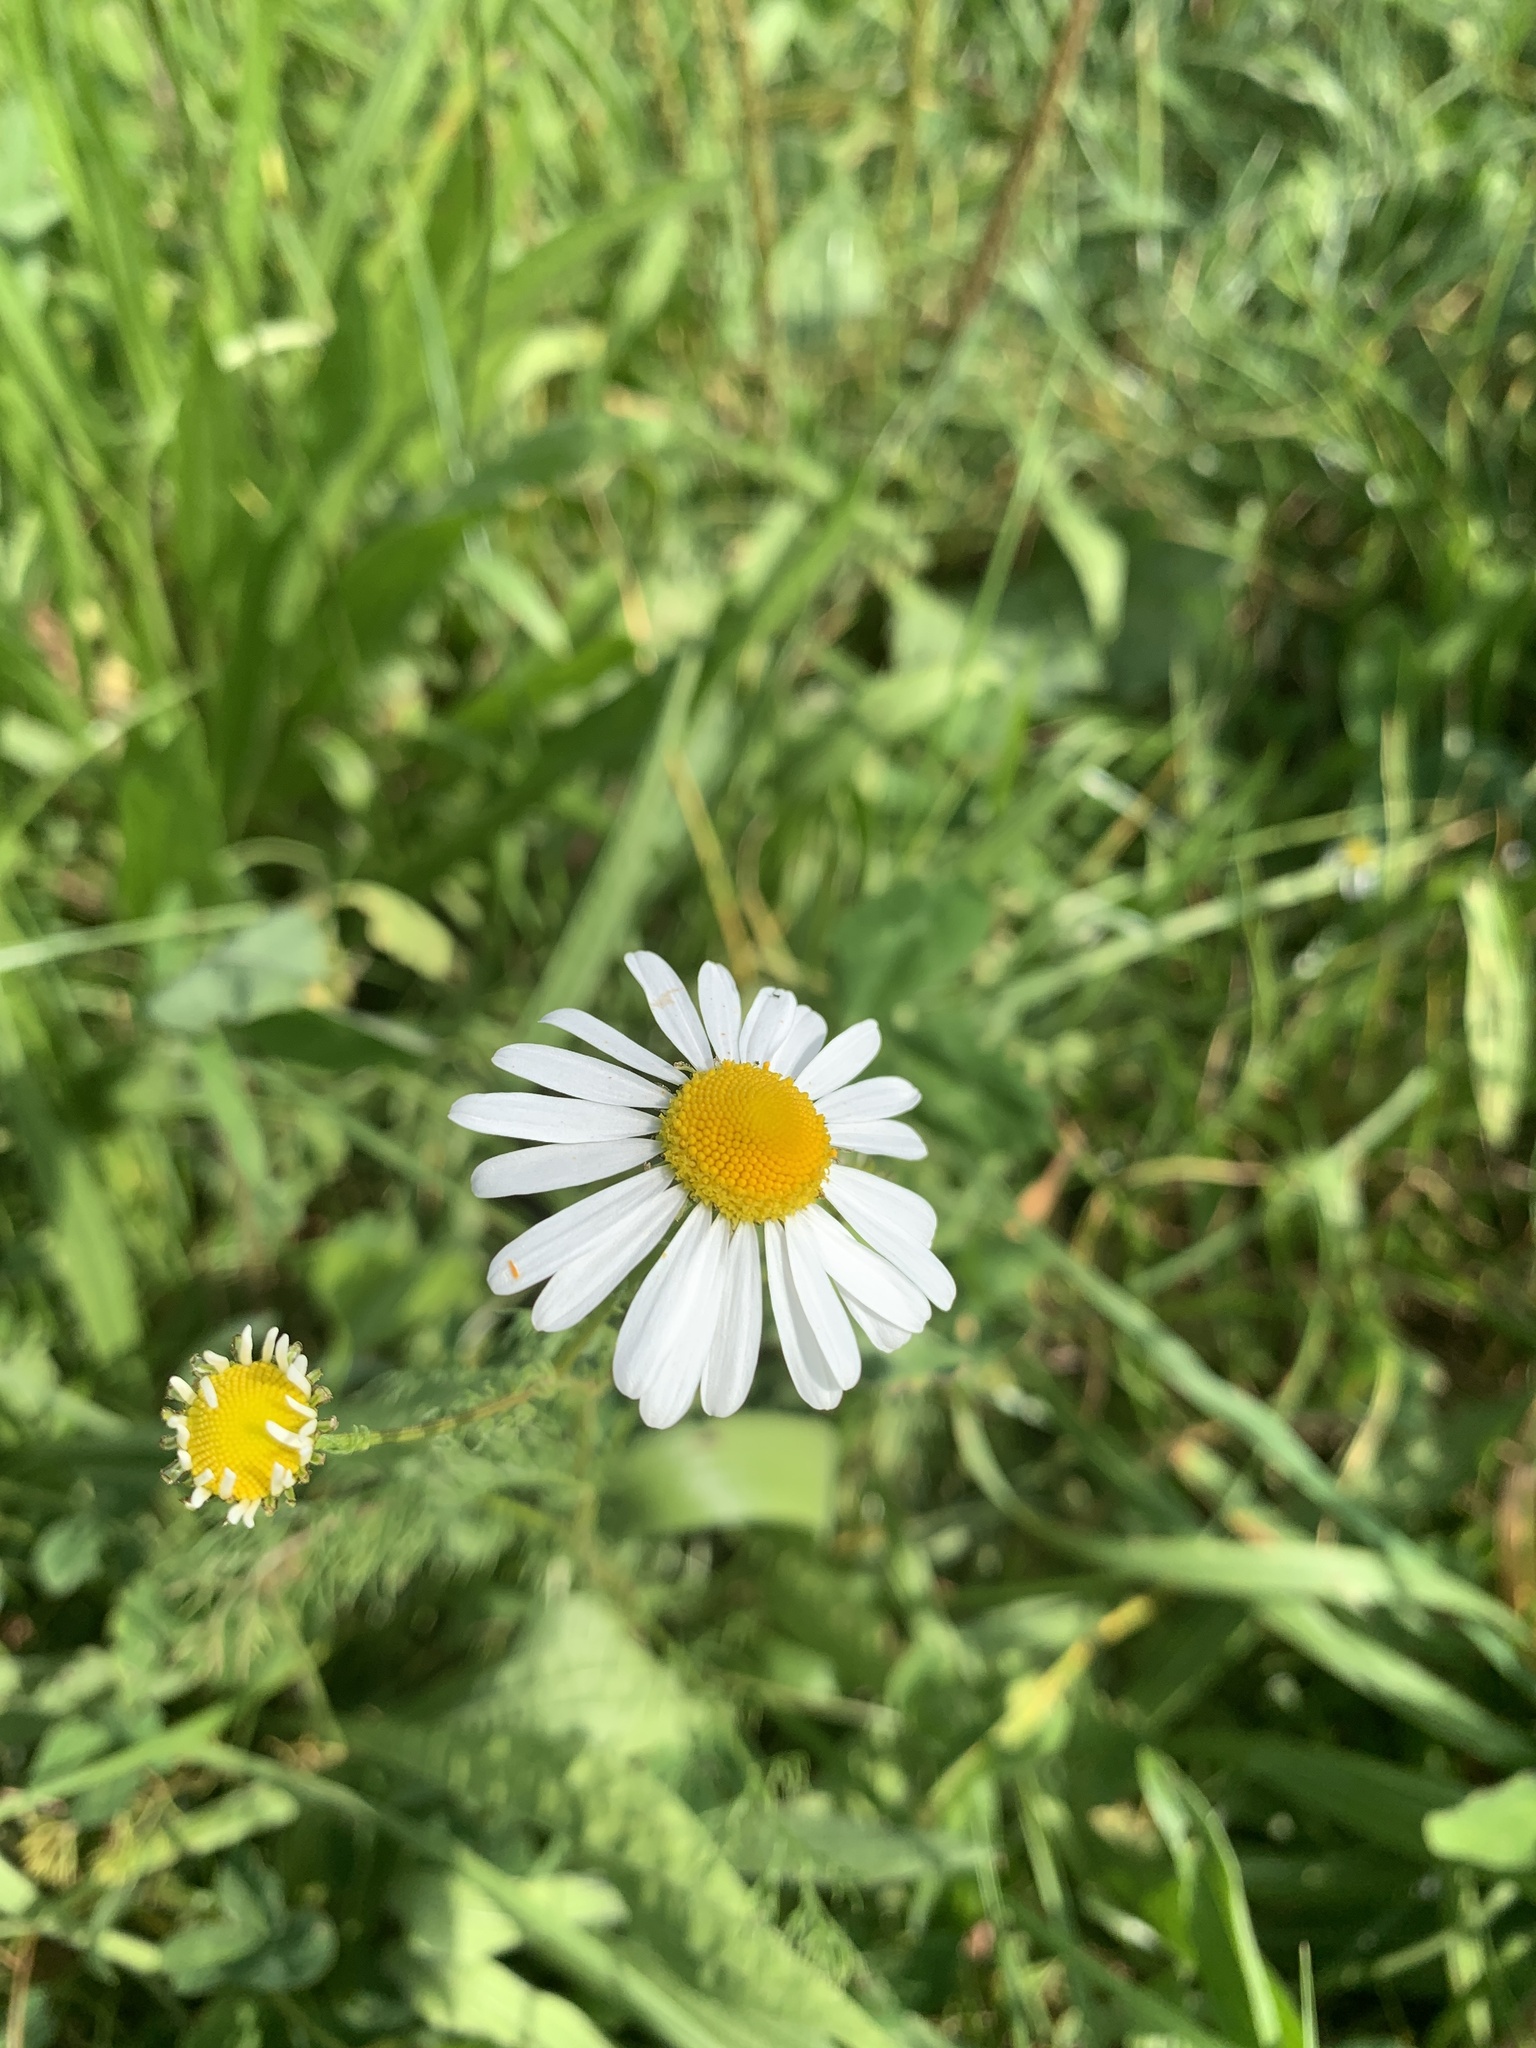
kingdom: Plantae
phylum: Tracheophyta
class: Magnoliopsida
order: Asterales
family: Asteraceae
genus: Leucanthemum
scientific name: Leucanthemum vulgare
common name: Oxeye daisy
